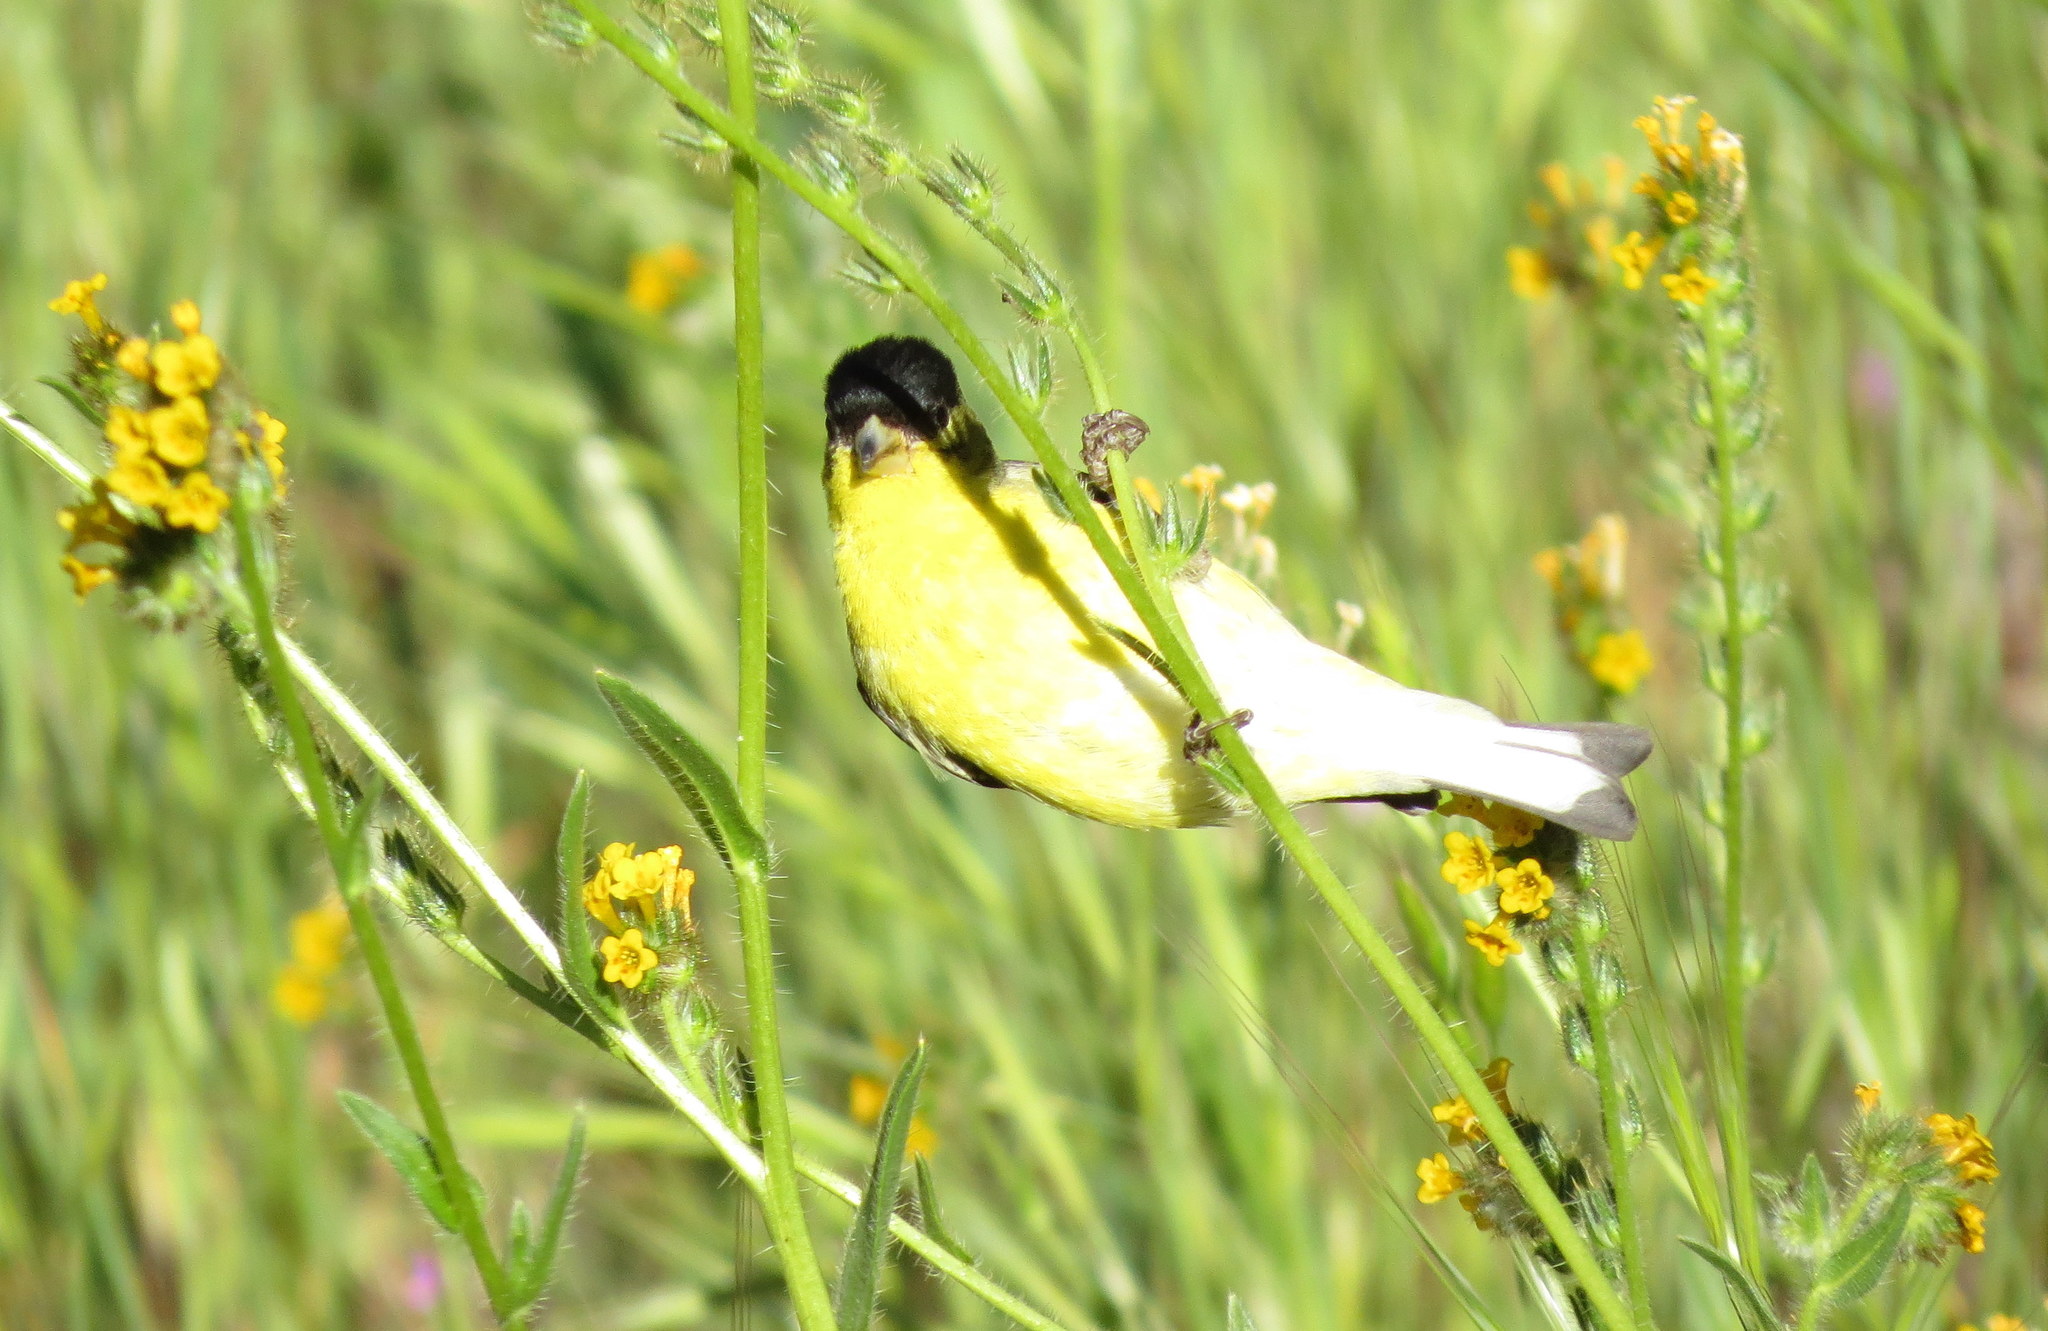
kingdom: Animalia
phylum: Chordata
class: Aves
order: Passeriformes
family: Fringillidae
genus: Spinus
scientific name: Spinus psaltria
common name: Lesser goldfinch
